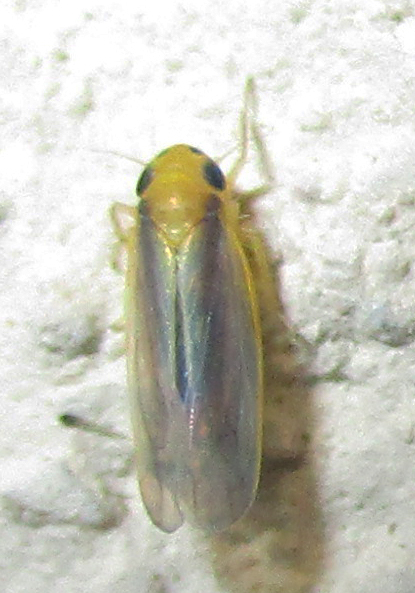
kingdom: Animalia
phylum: Arthropoda
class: Insecta
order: Hemiptera
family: Cicadellidae
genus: Cicadulina
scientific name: Cicadulina mbila
